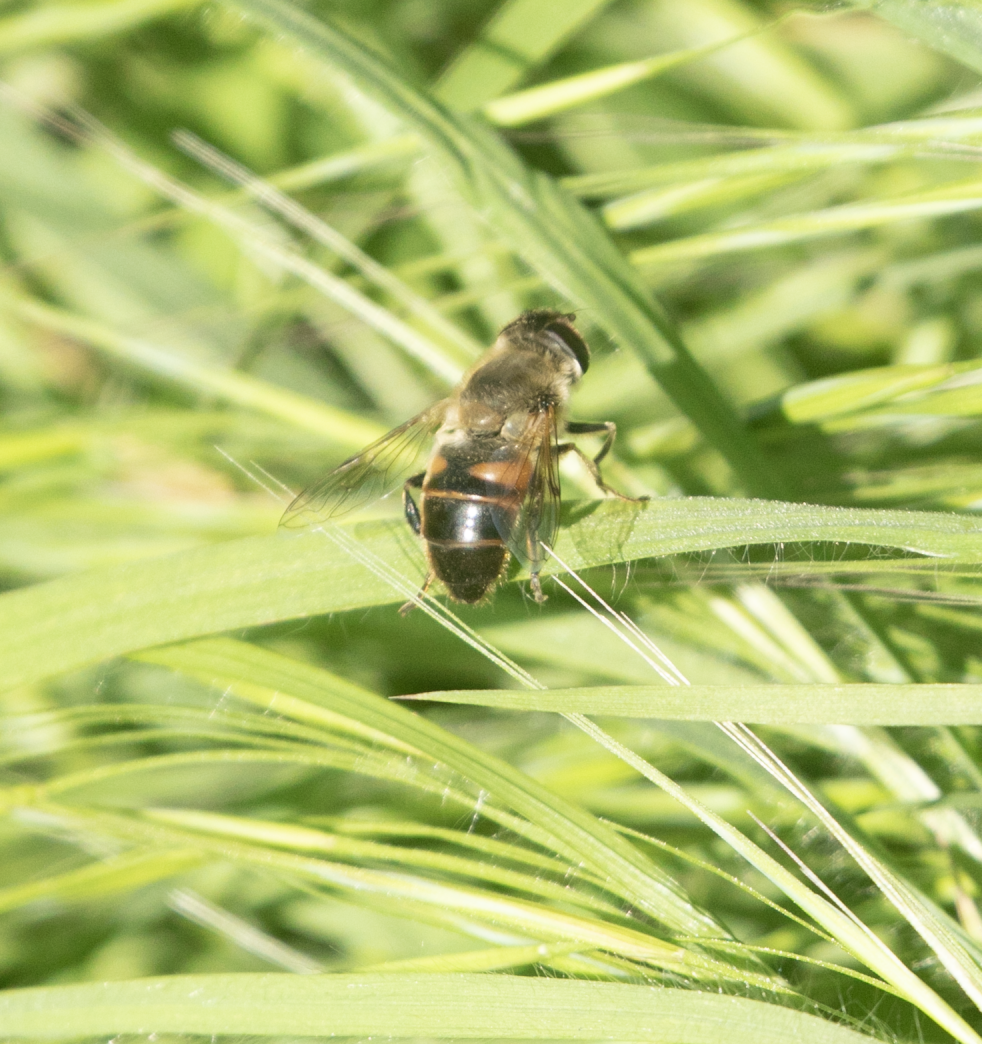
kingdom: Animalia
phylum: Arthropoda
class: Insecta
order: Diptera
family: Syrphidae
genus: Eristalis
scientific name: Eristalis tenax
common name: Drone fly
